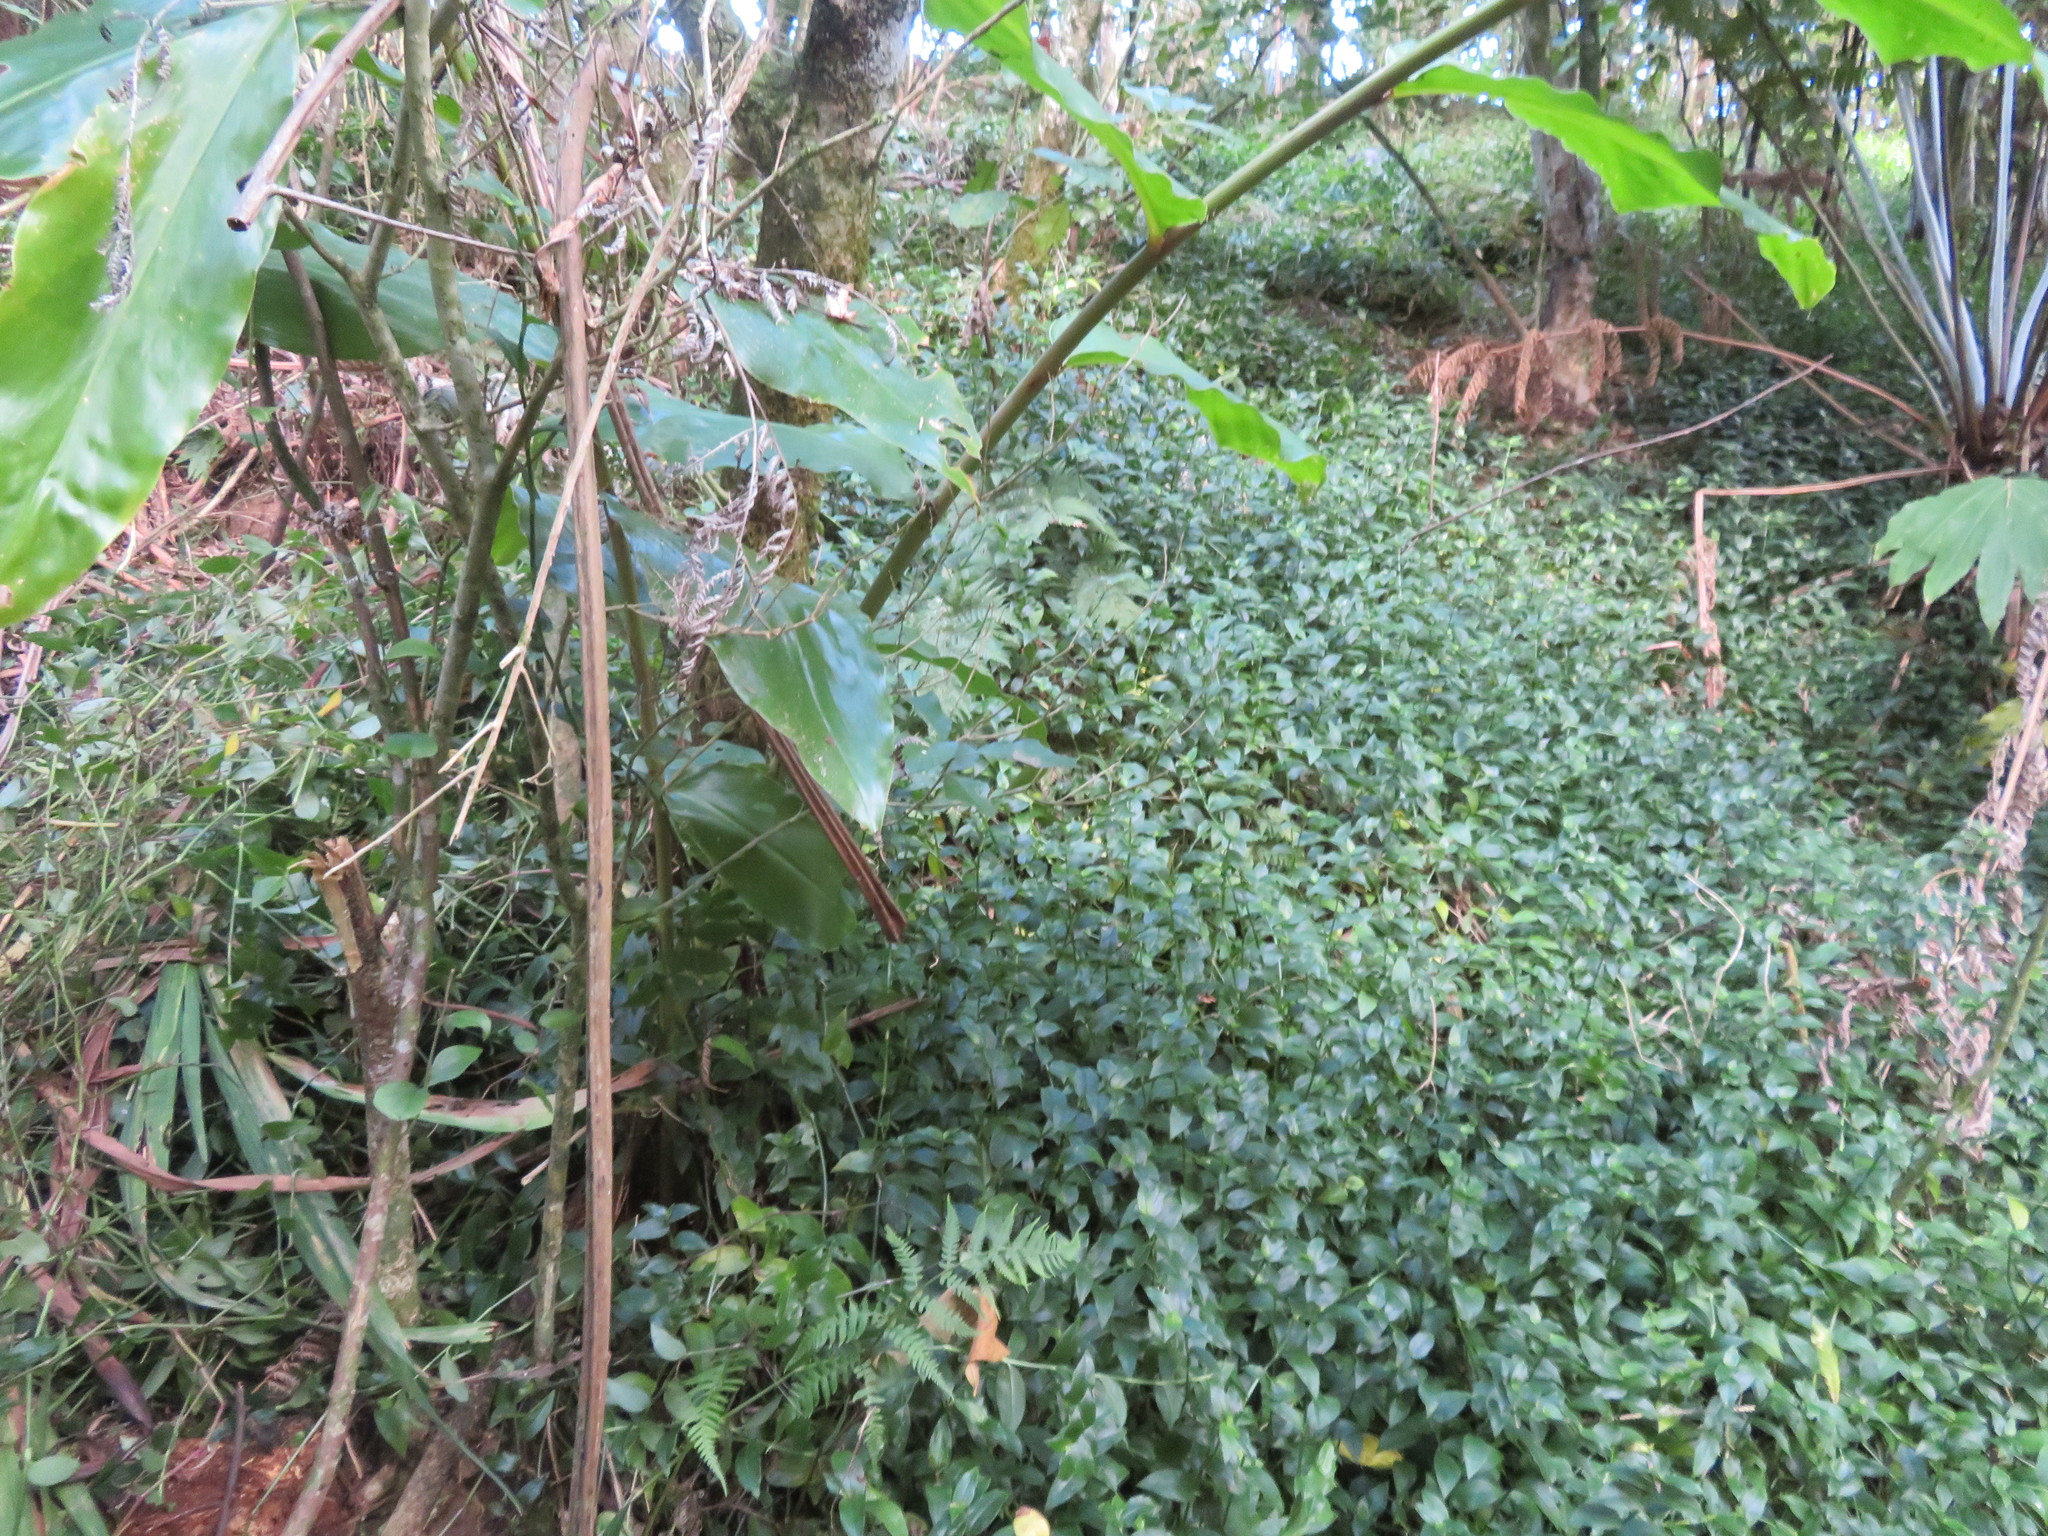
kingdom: Plantae
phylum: Tracheophyta
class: Liliopsida
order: Zingiberales
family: Zingiberaceae
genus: Hedychium
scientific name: Hedychium gardnerianum
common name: Himalayan ginger
